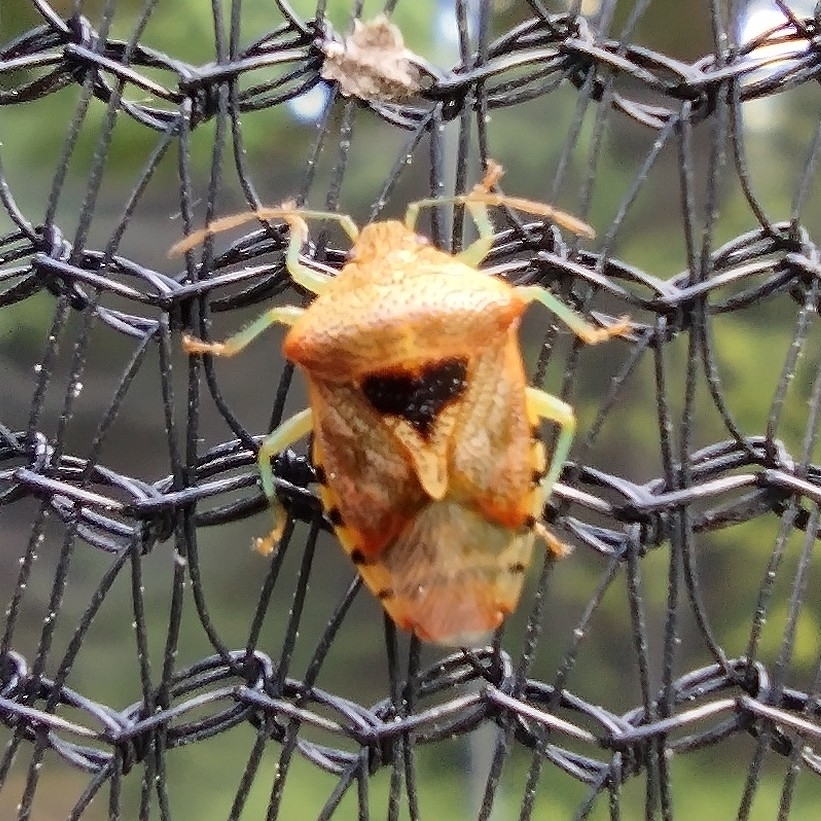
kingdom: Animalia
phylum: Arthropoda
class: Insecta
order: Hemiptera
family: Acanthosomatidae
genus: Elasmucha
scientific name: Elasmucha grisea
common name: Parent bug
